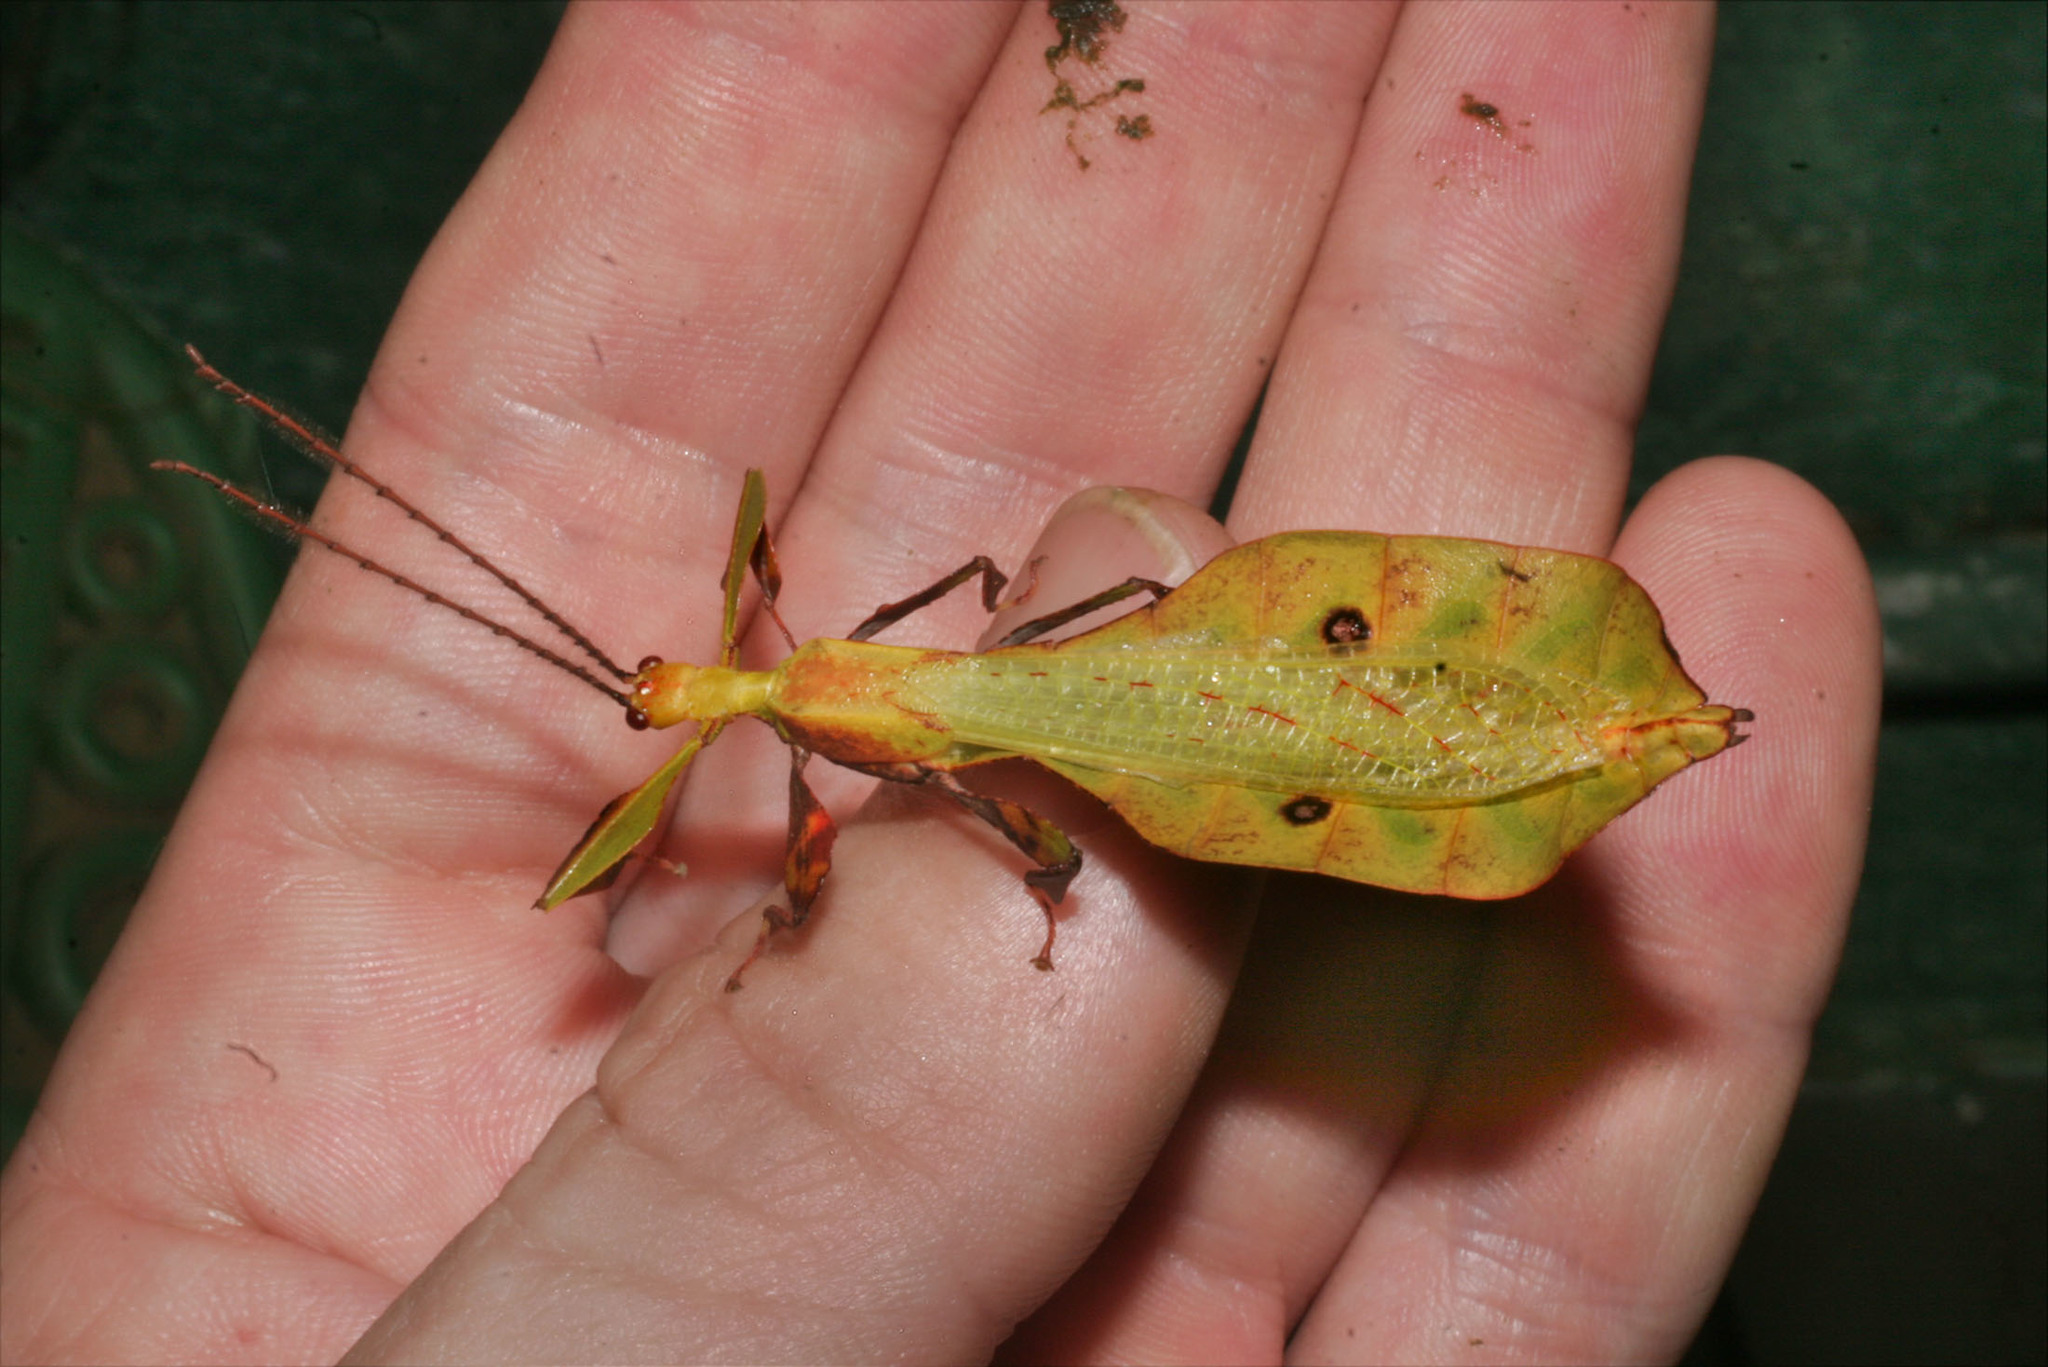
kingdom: Animalia
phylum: Arthropoda
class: Insecta
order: Phasmida
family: Phylliidae
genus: Pulchriphyllium
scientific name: Pulchriphyllium agathyrsus
